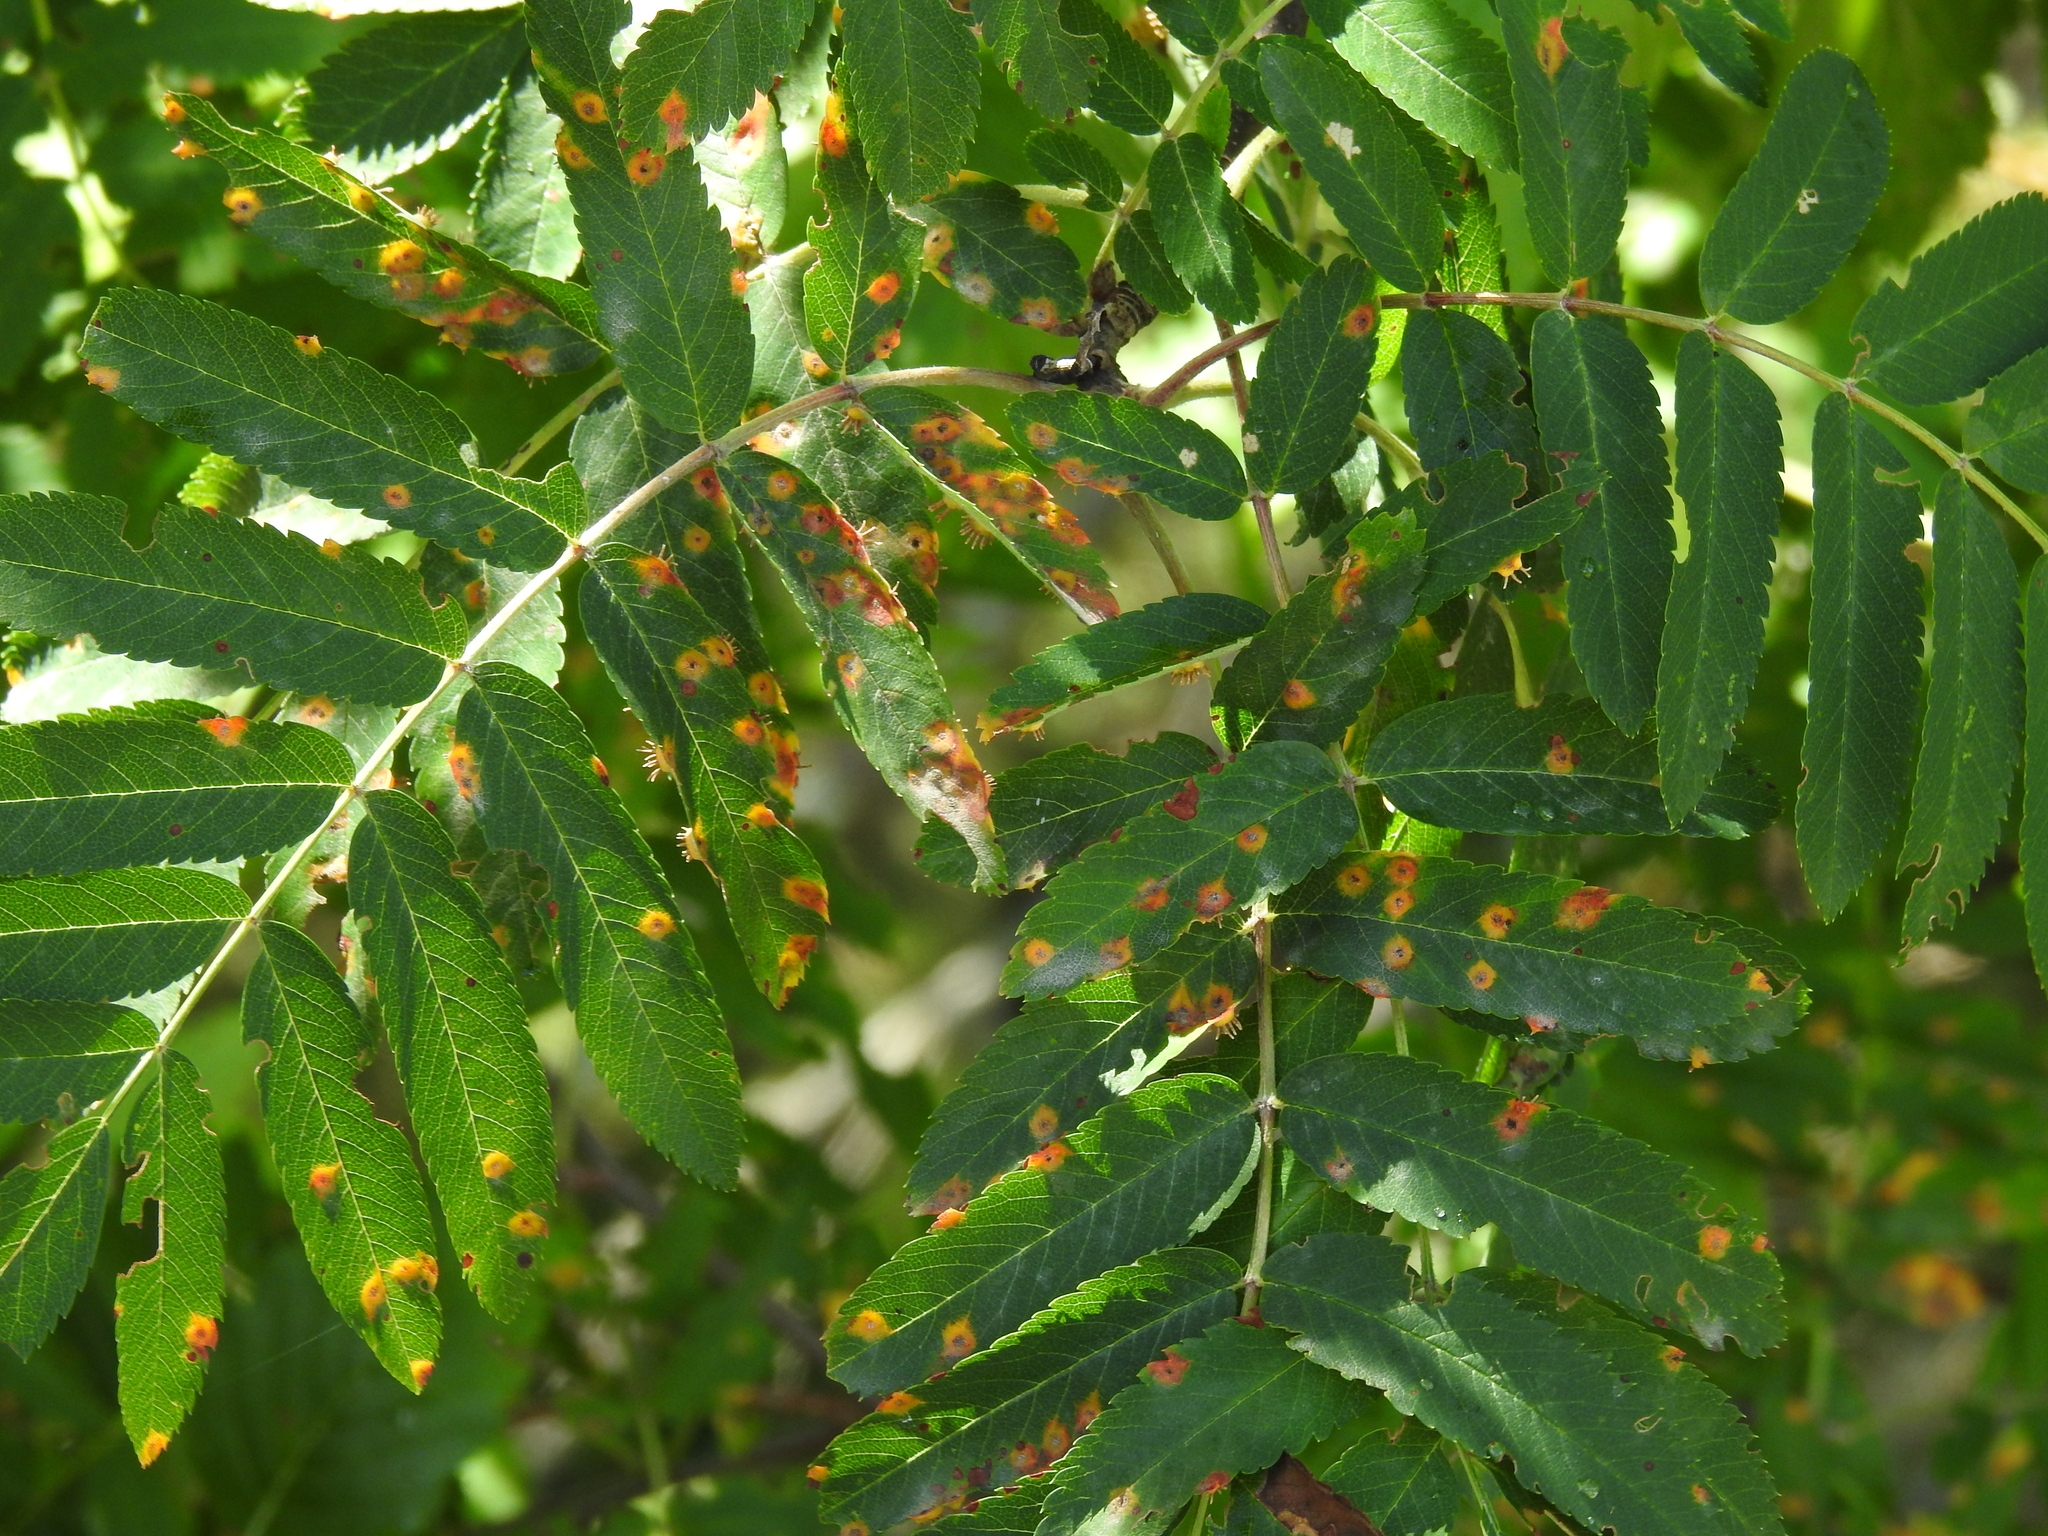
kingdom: Fungi
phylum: Basidiomycota
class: Pucciniomycetes
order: Pucciniales
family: Gymnosporangiaceae
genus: Gymnosporangium
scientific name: Gymnosporangium cornutum
